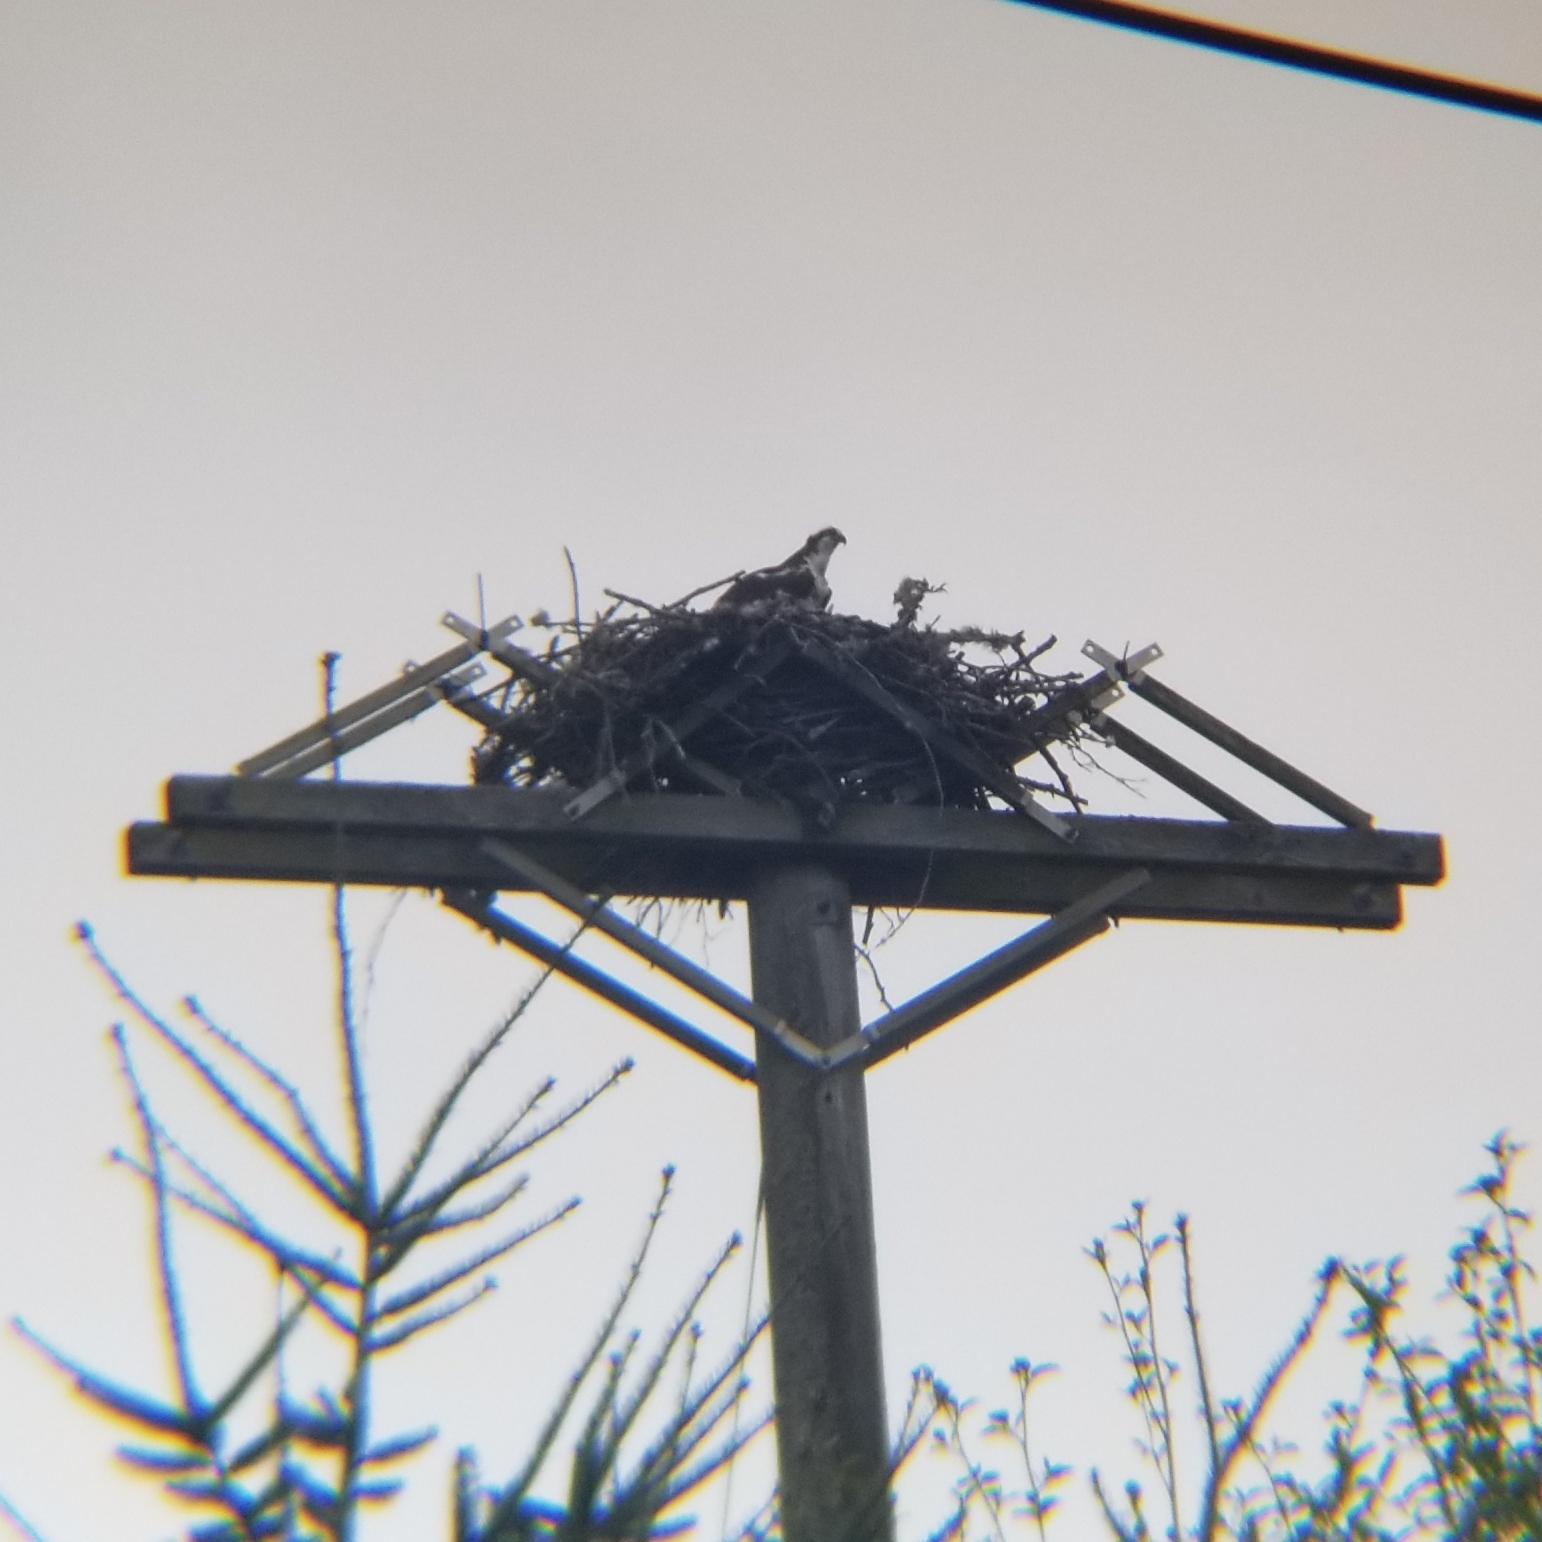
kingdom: Animalia
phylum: Chordata
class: Aves
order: Accipitriformes
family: Pandionidae
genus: Pandion
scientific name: Pandion haliaetus
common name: Osprey
